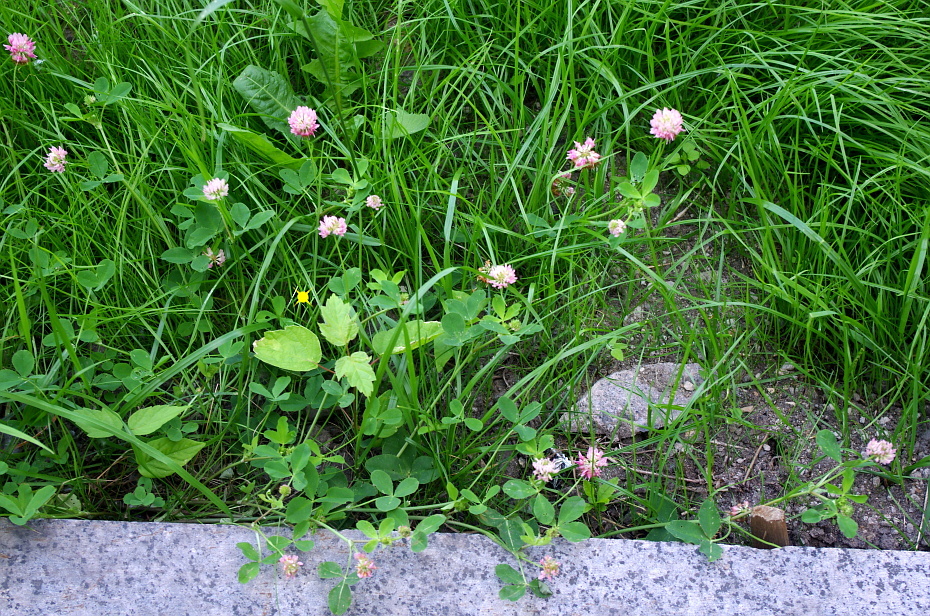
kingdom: Plantae
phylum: Tracheophyta
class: Magnoliopsida
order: Sapindales
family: Sapindaceae
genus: Acer
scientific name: Acer negundo
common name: Ashleaf maple
